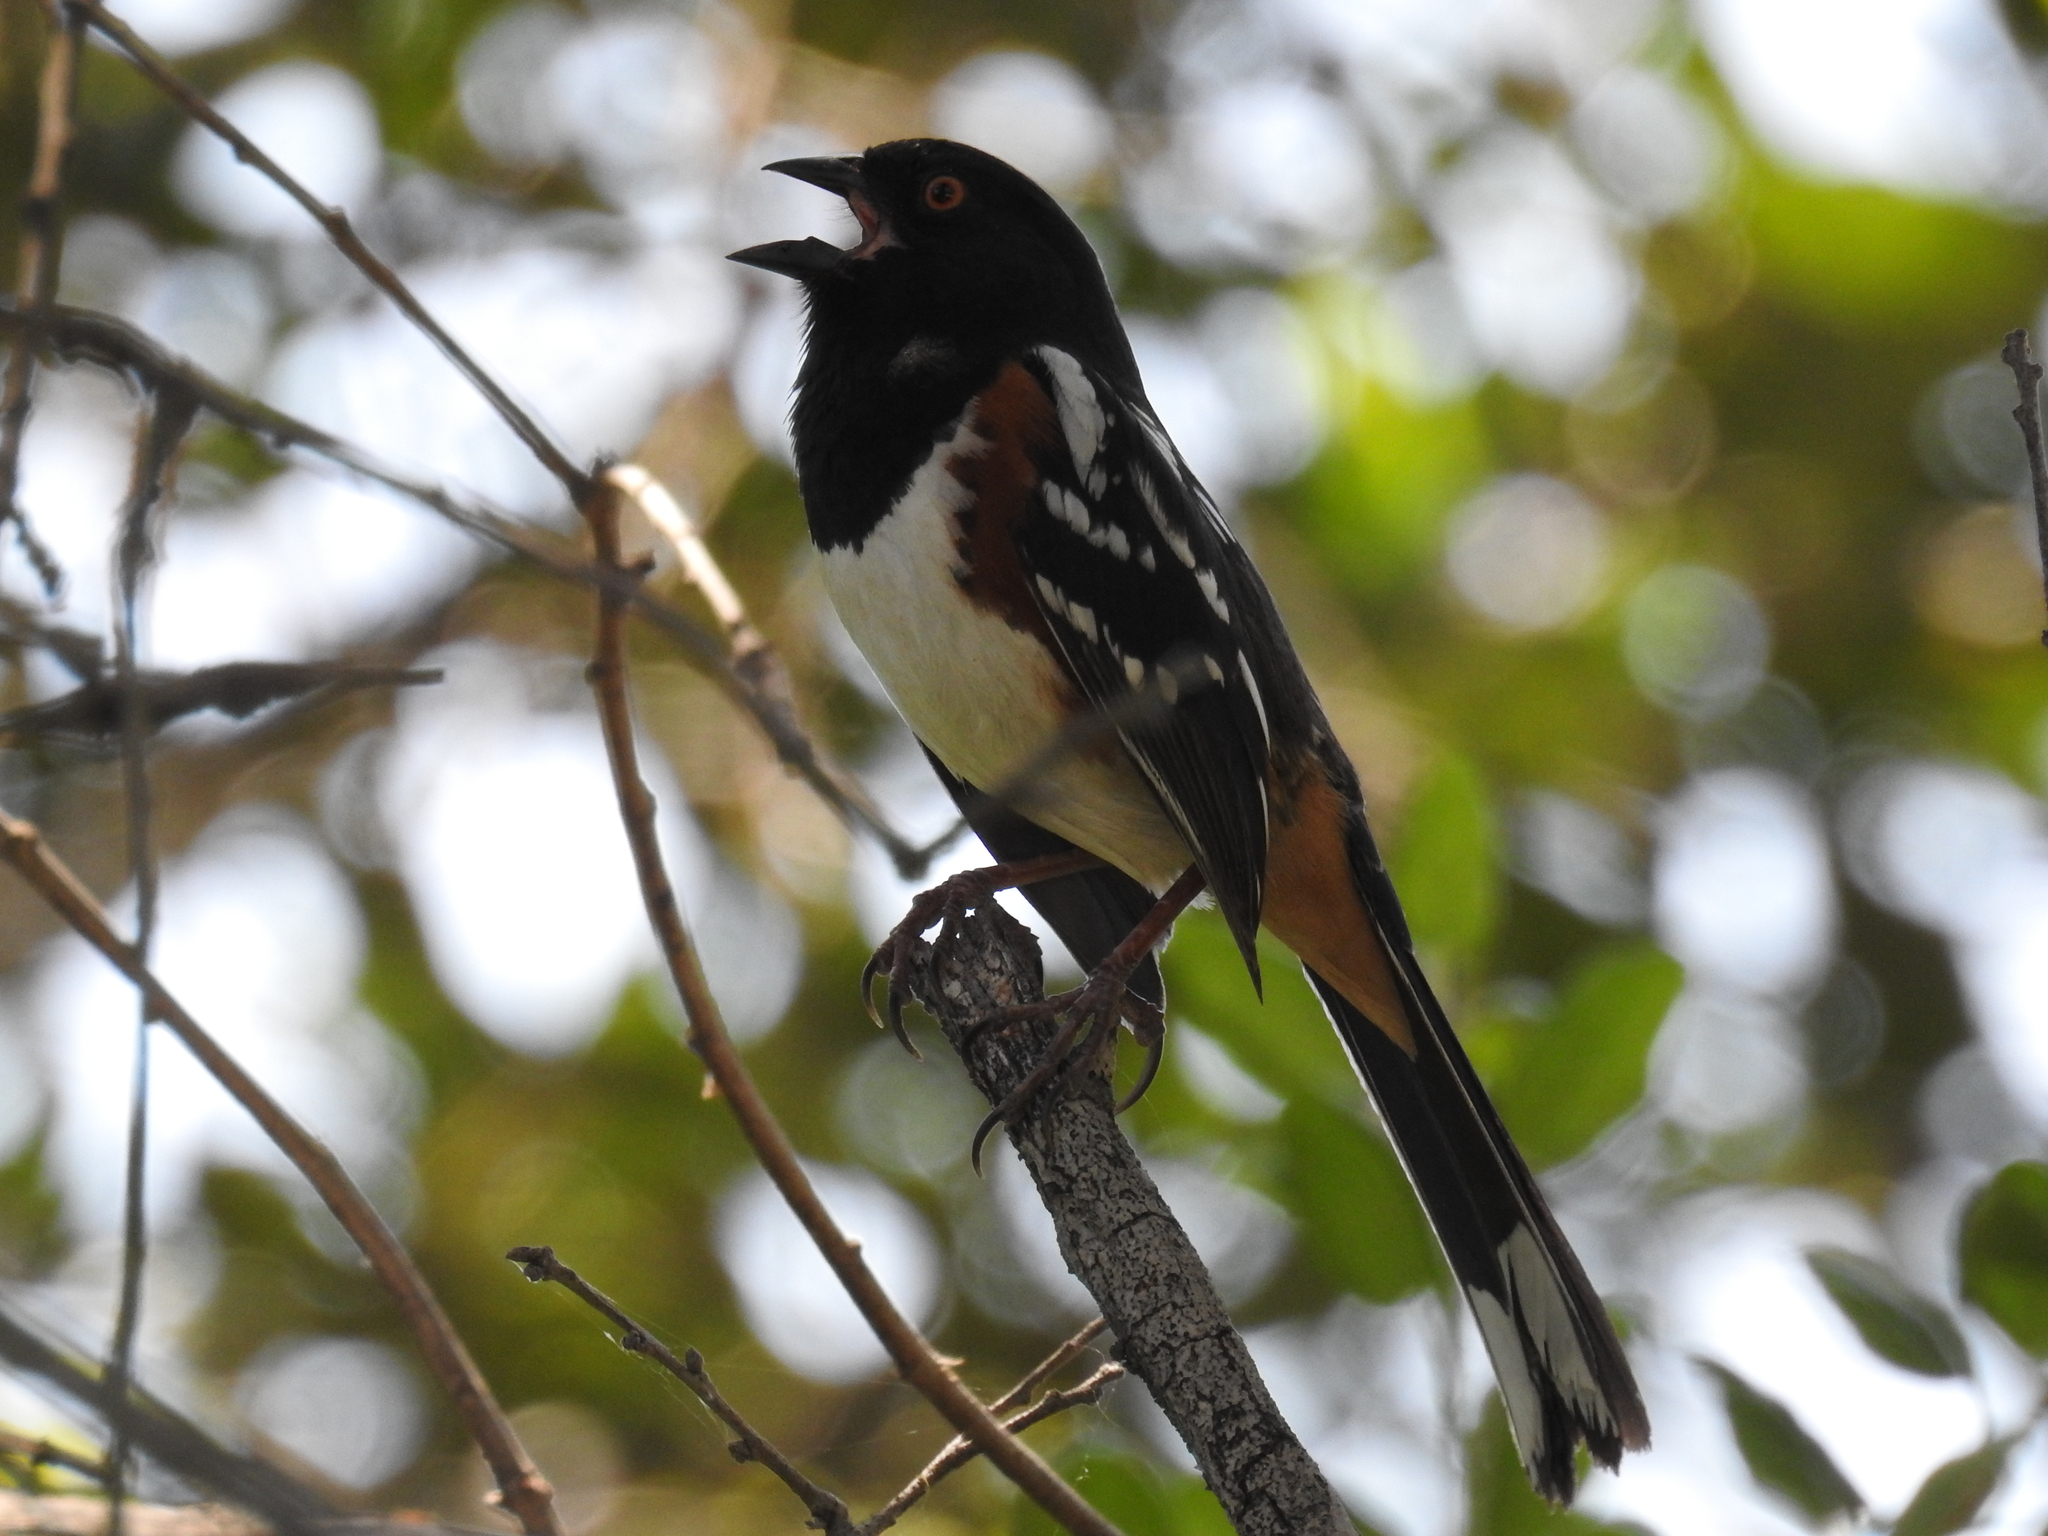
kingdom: Animalia
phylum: Chordata
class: Aves
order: Passeriformes
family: Passerellidae
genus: Pipilo
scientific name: Pipilo maculatus
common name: Spotted towhee
